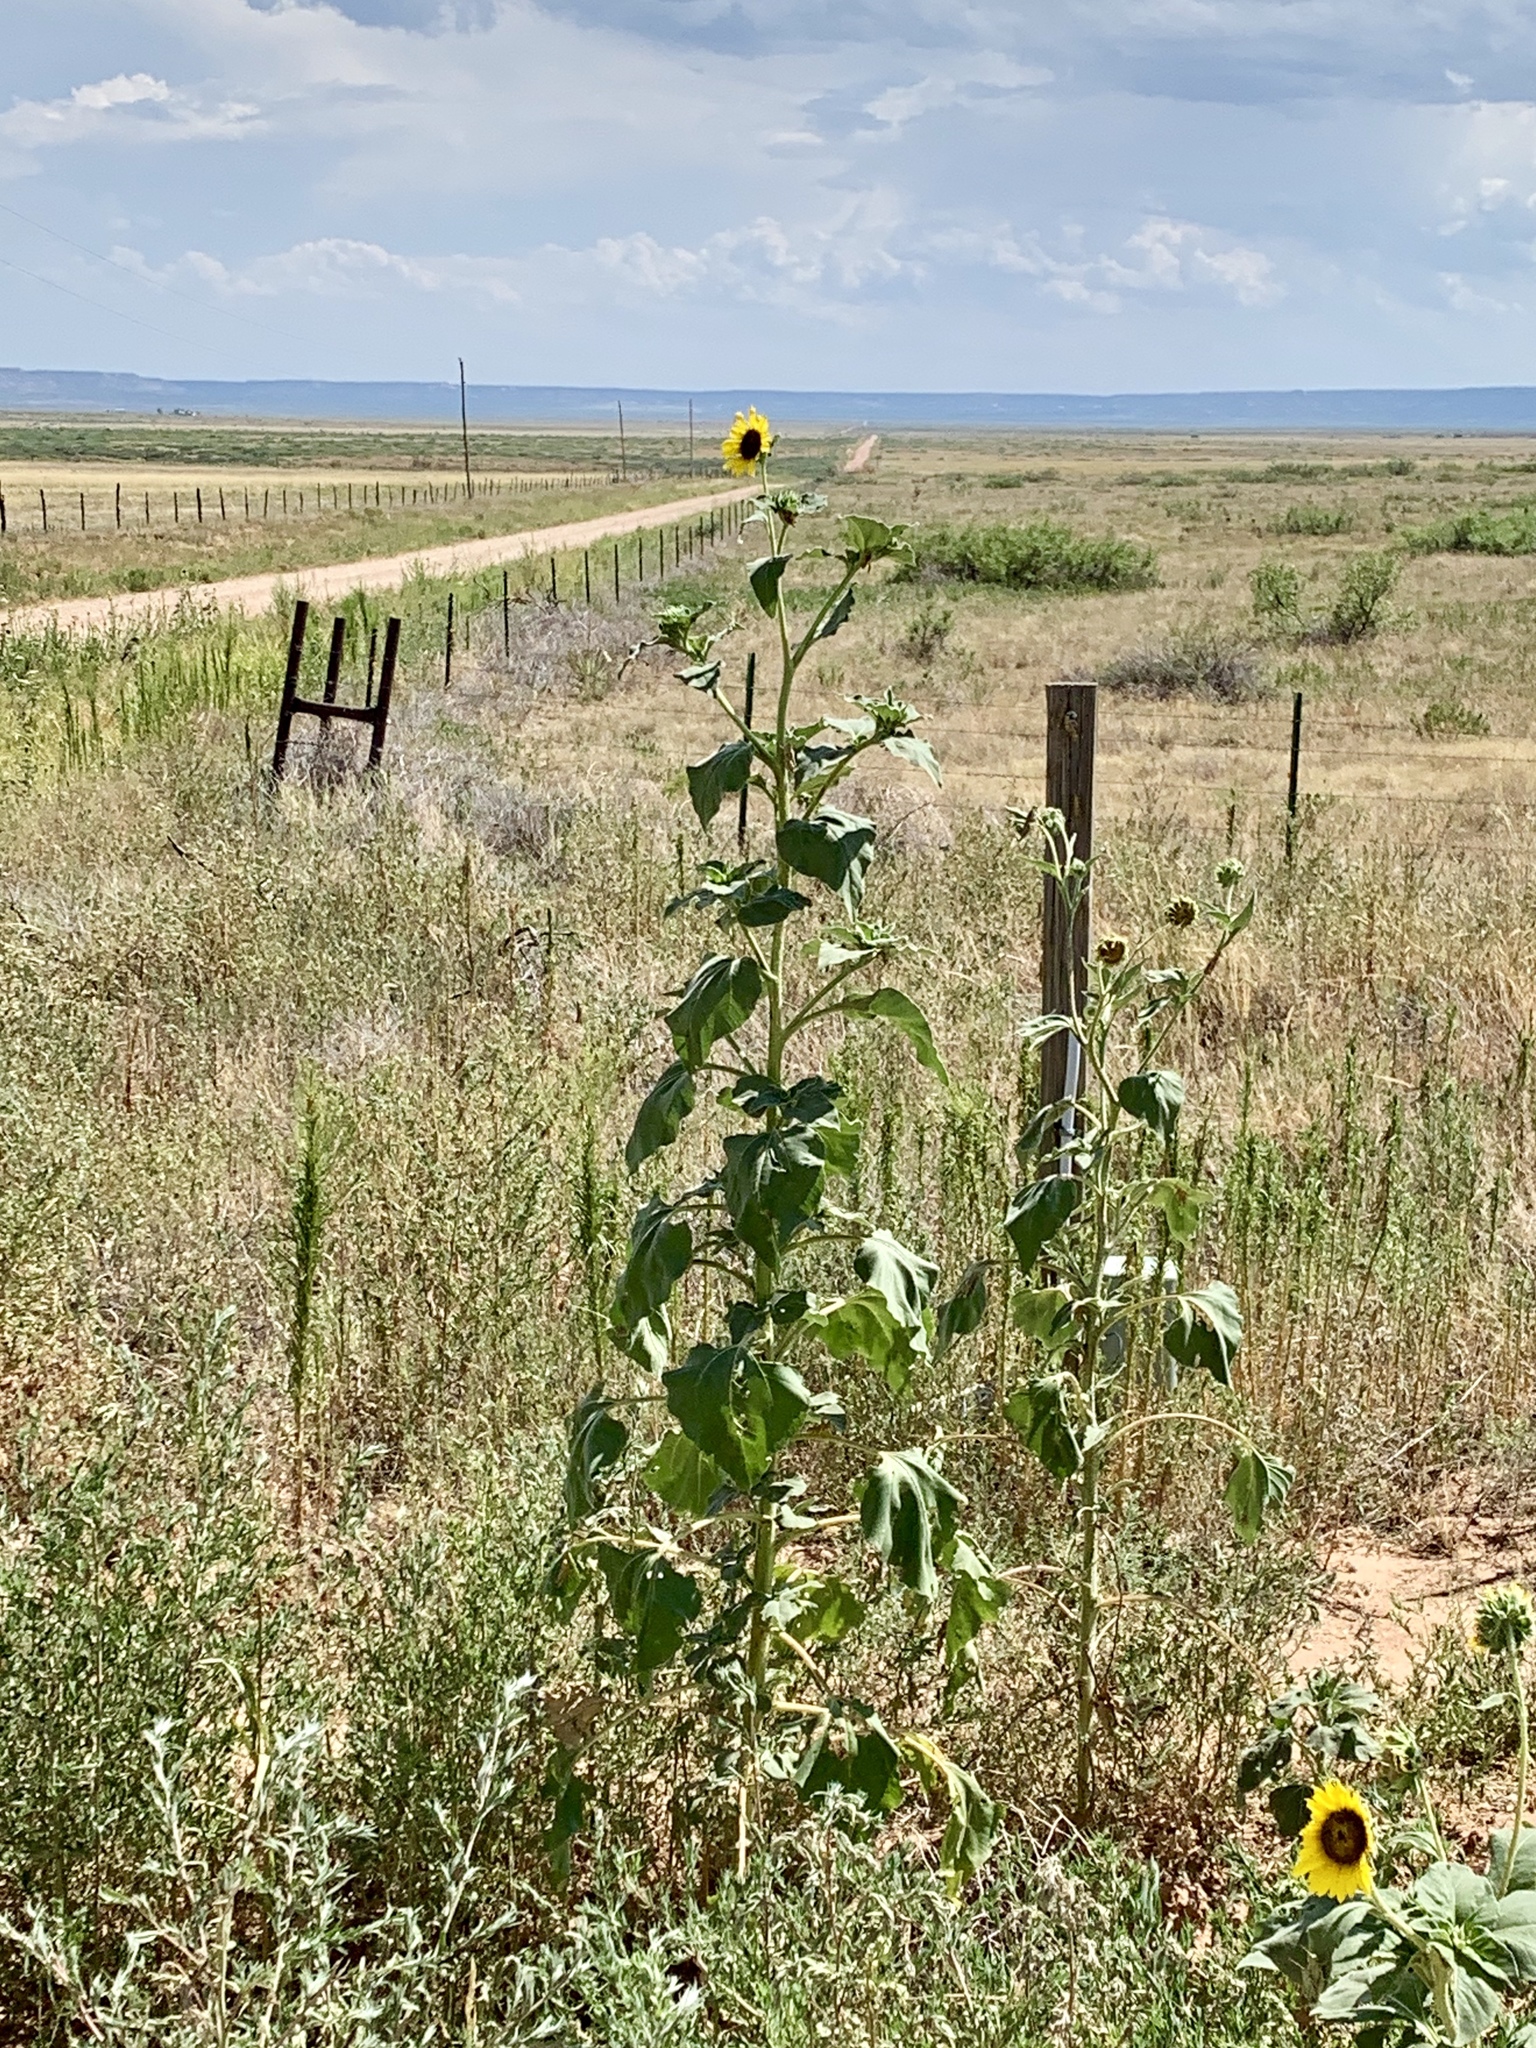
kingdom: Plantae
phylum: Tracheophyta
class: Magnoliopsida
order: Asterales
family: Asteraceae
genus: Helianthus
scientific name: Helianthus annuus
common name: Sunflower
